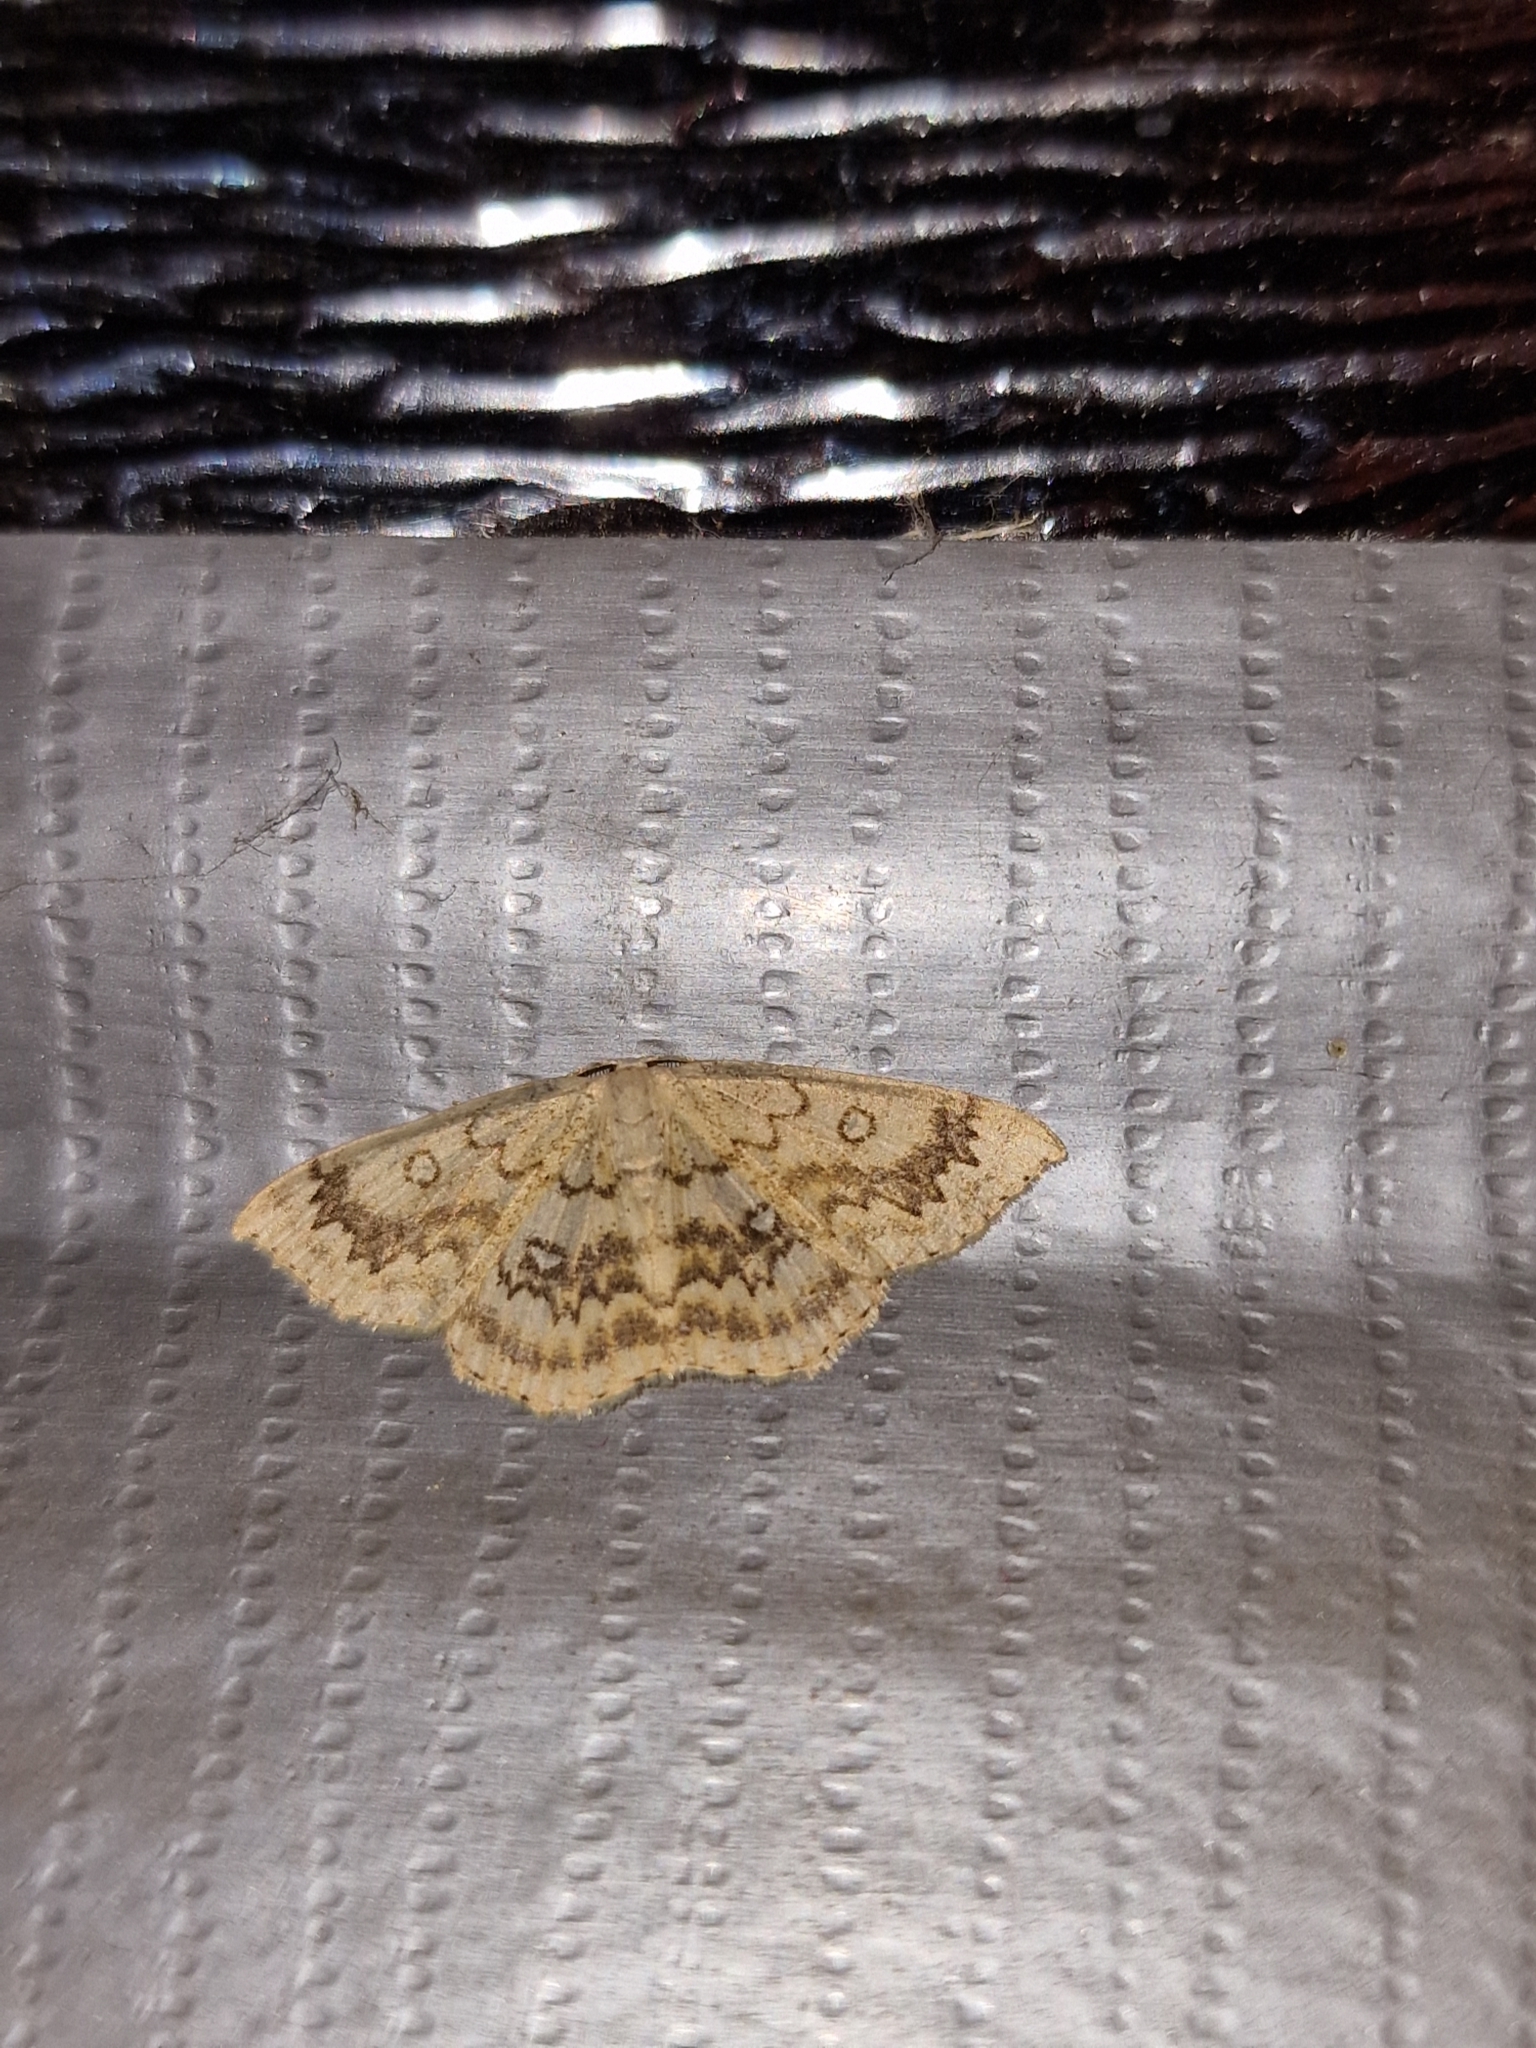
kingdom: Animalia
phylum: Arthropoda
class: Insecta
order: Lepidoptera
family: Geometridae
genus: Cyclophora
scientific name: Cyclophora annularia
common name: Mocha
